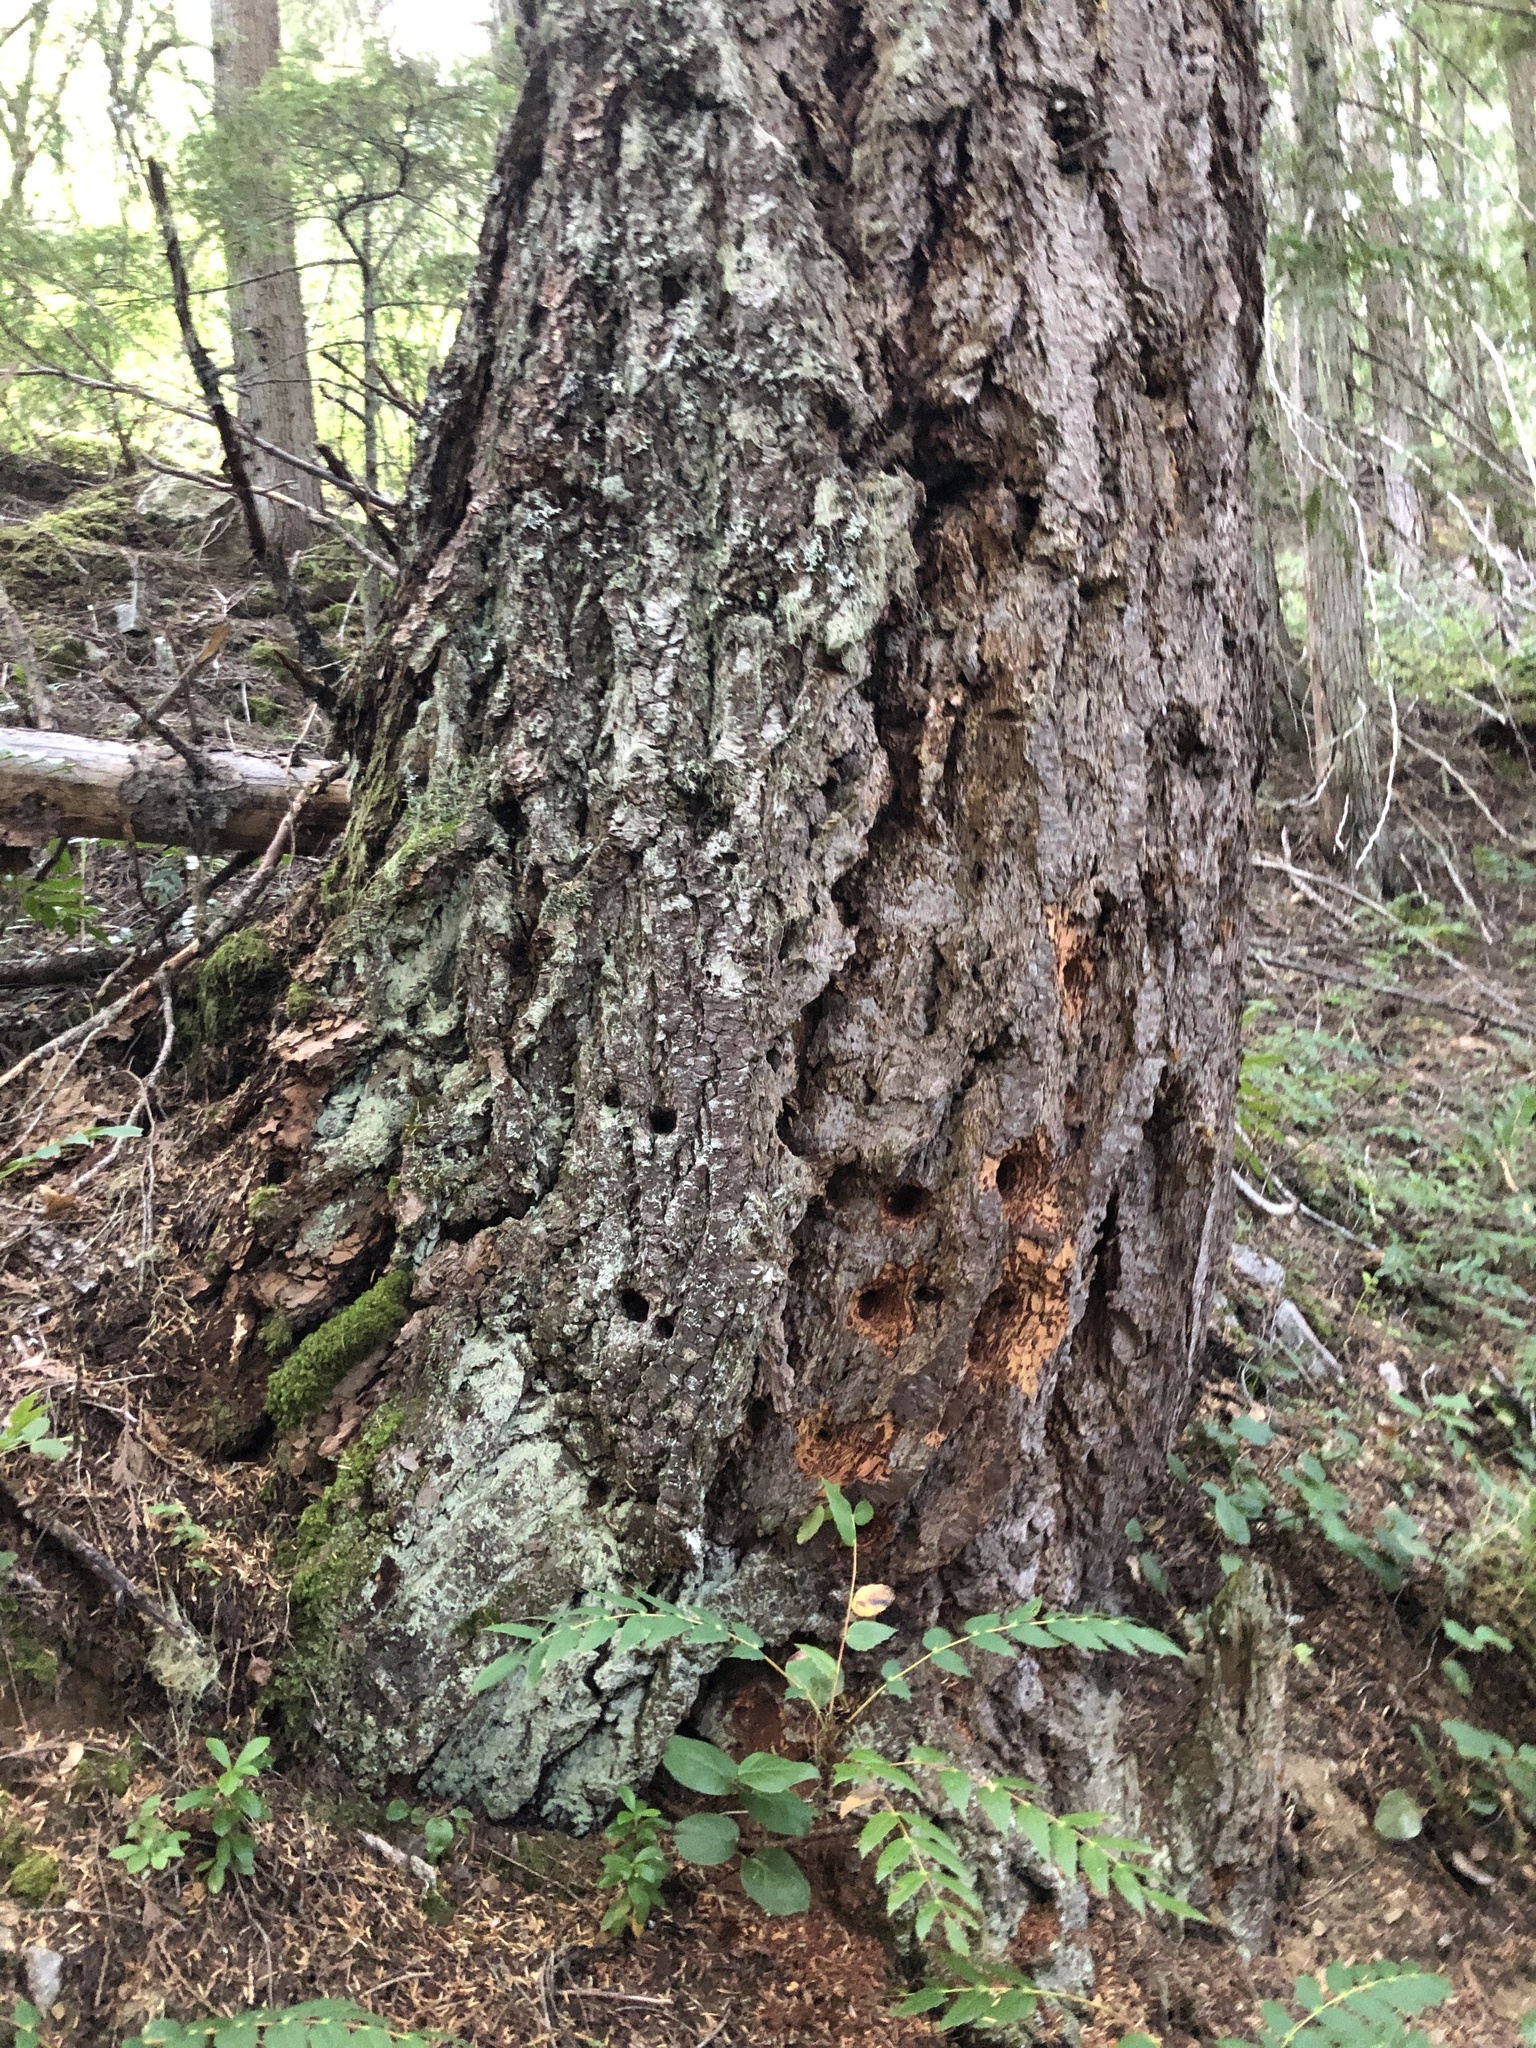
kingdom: Plantae
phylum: Tracheophyta
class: Pinopsida
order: Pinales
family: Pinaceae
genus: Pseudotsuga
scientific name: Pseudotsuga menziesii
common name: Douglas fir
